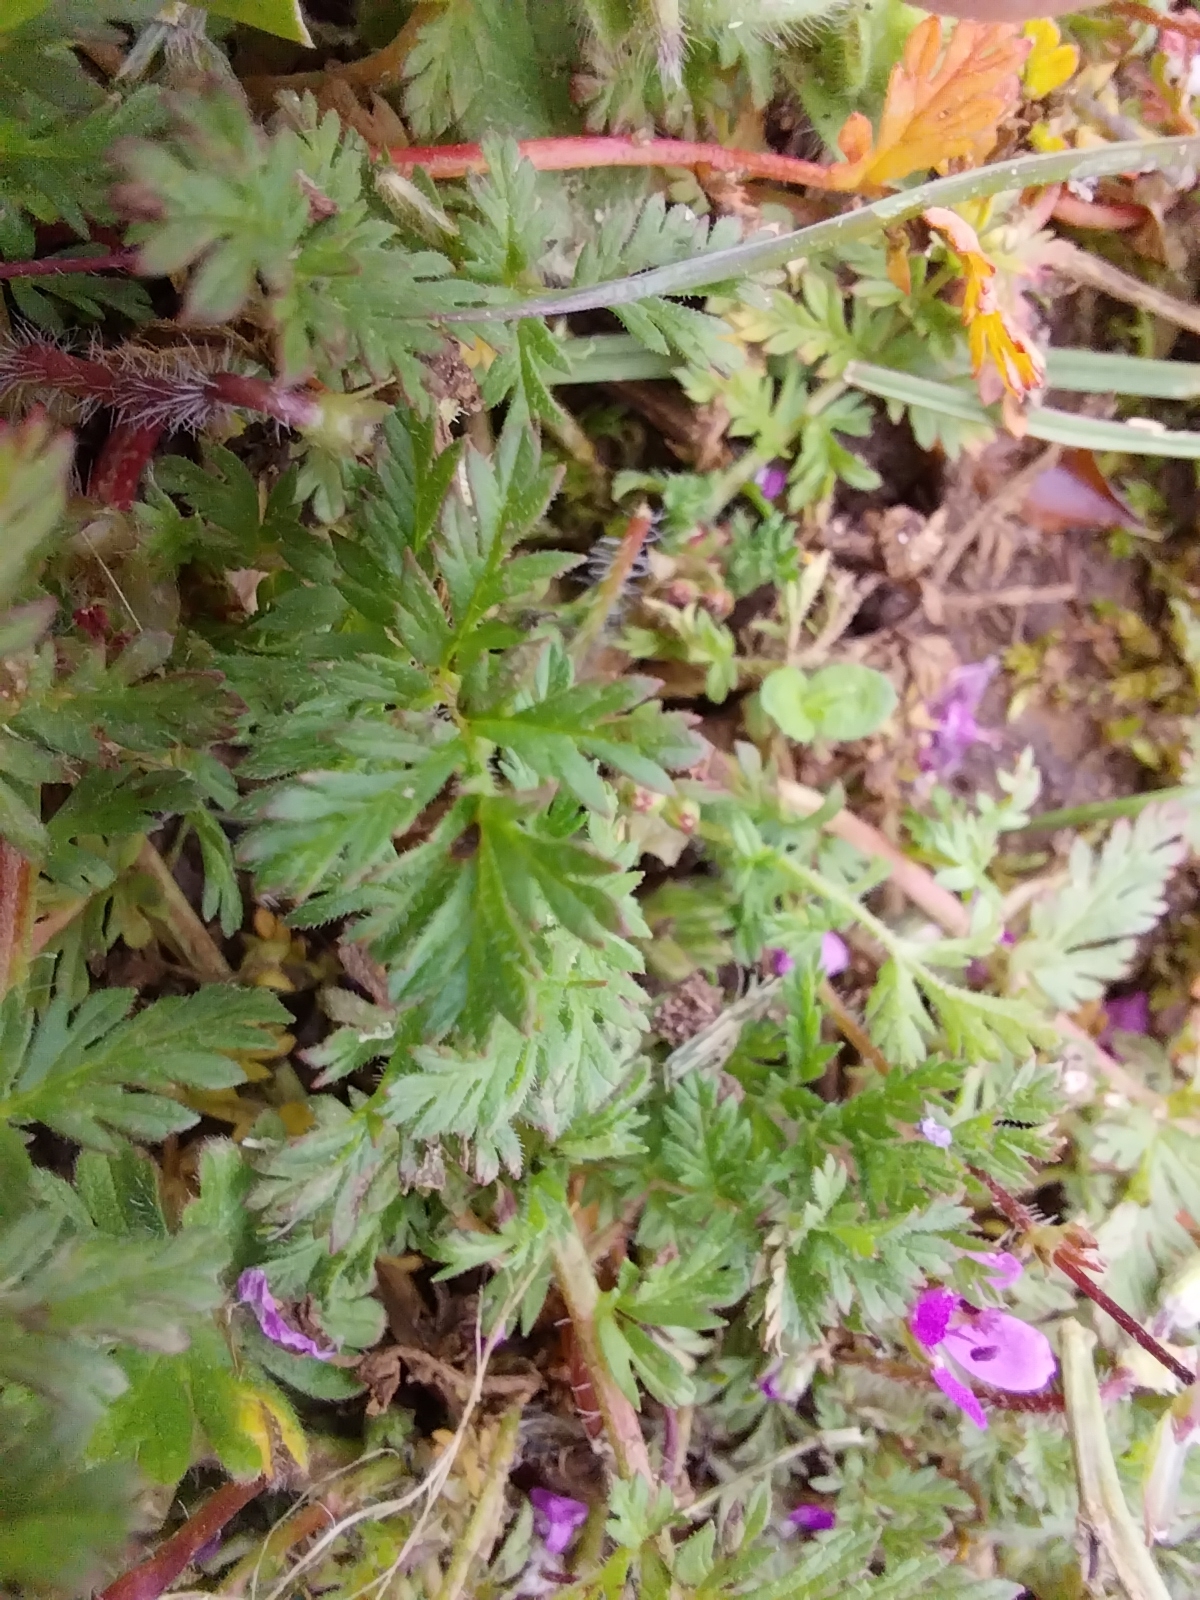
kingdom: Plantae
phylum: Tracheophyta
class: Magnoliopsida
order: Geraniales
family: Geraniaceae
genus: Erodium
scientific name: Erodium cicutarium
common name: Common stork's-bill
